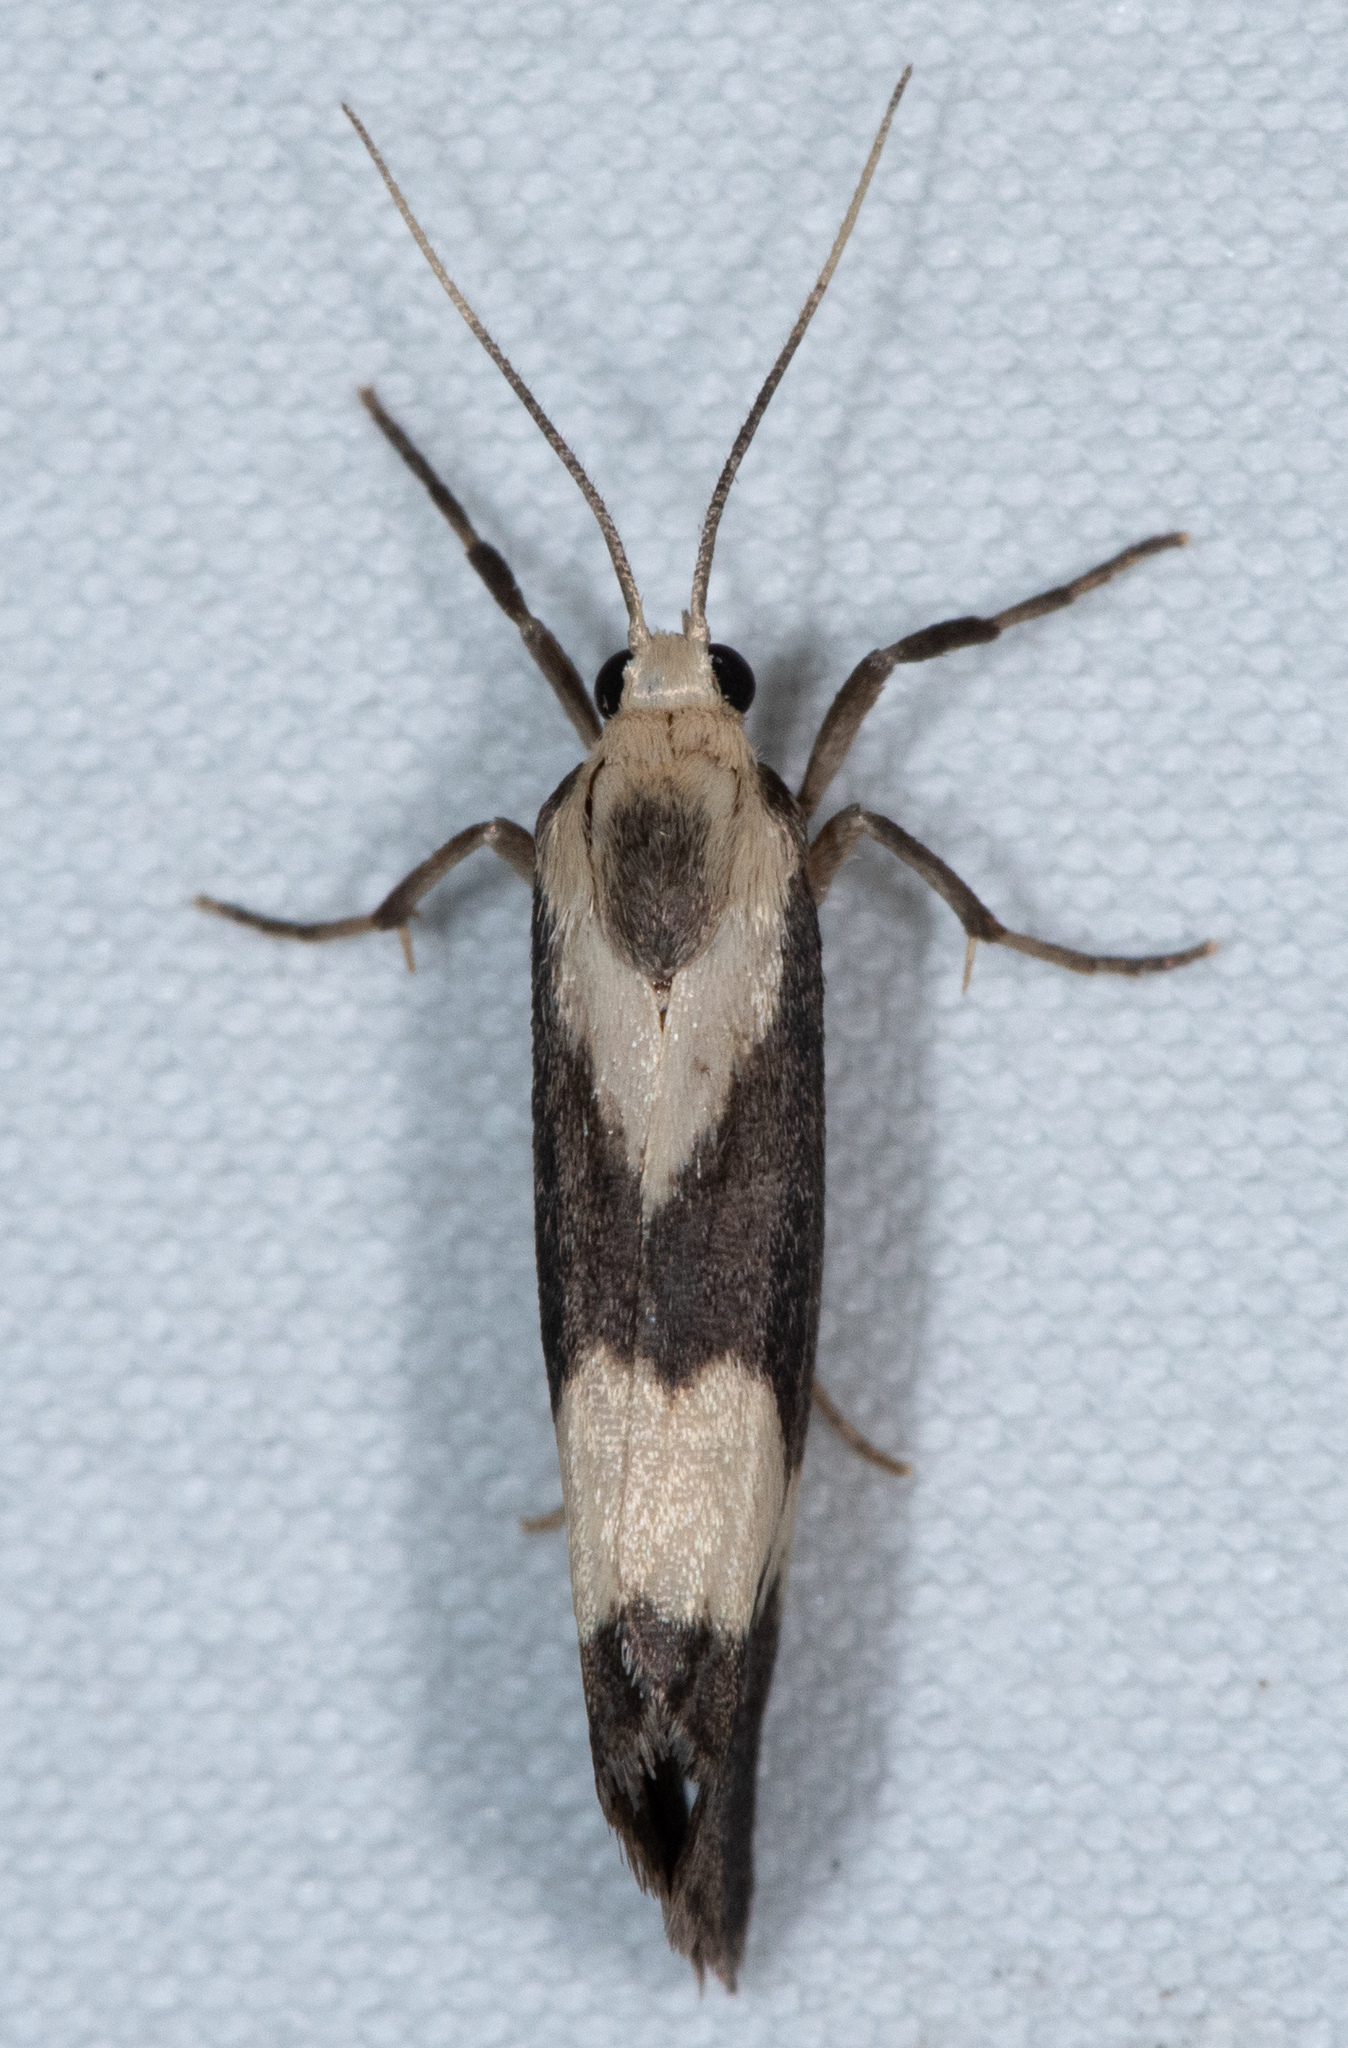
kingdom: Animalia
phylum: Arthropoda
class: Insecta
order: Lepidoptera
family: Erebidae
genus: Cisthene
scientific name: Cisthene faustinula
